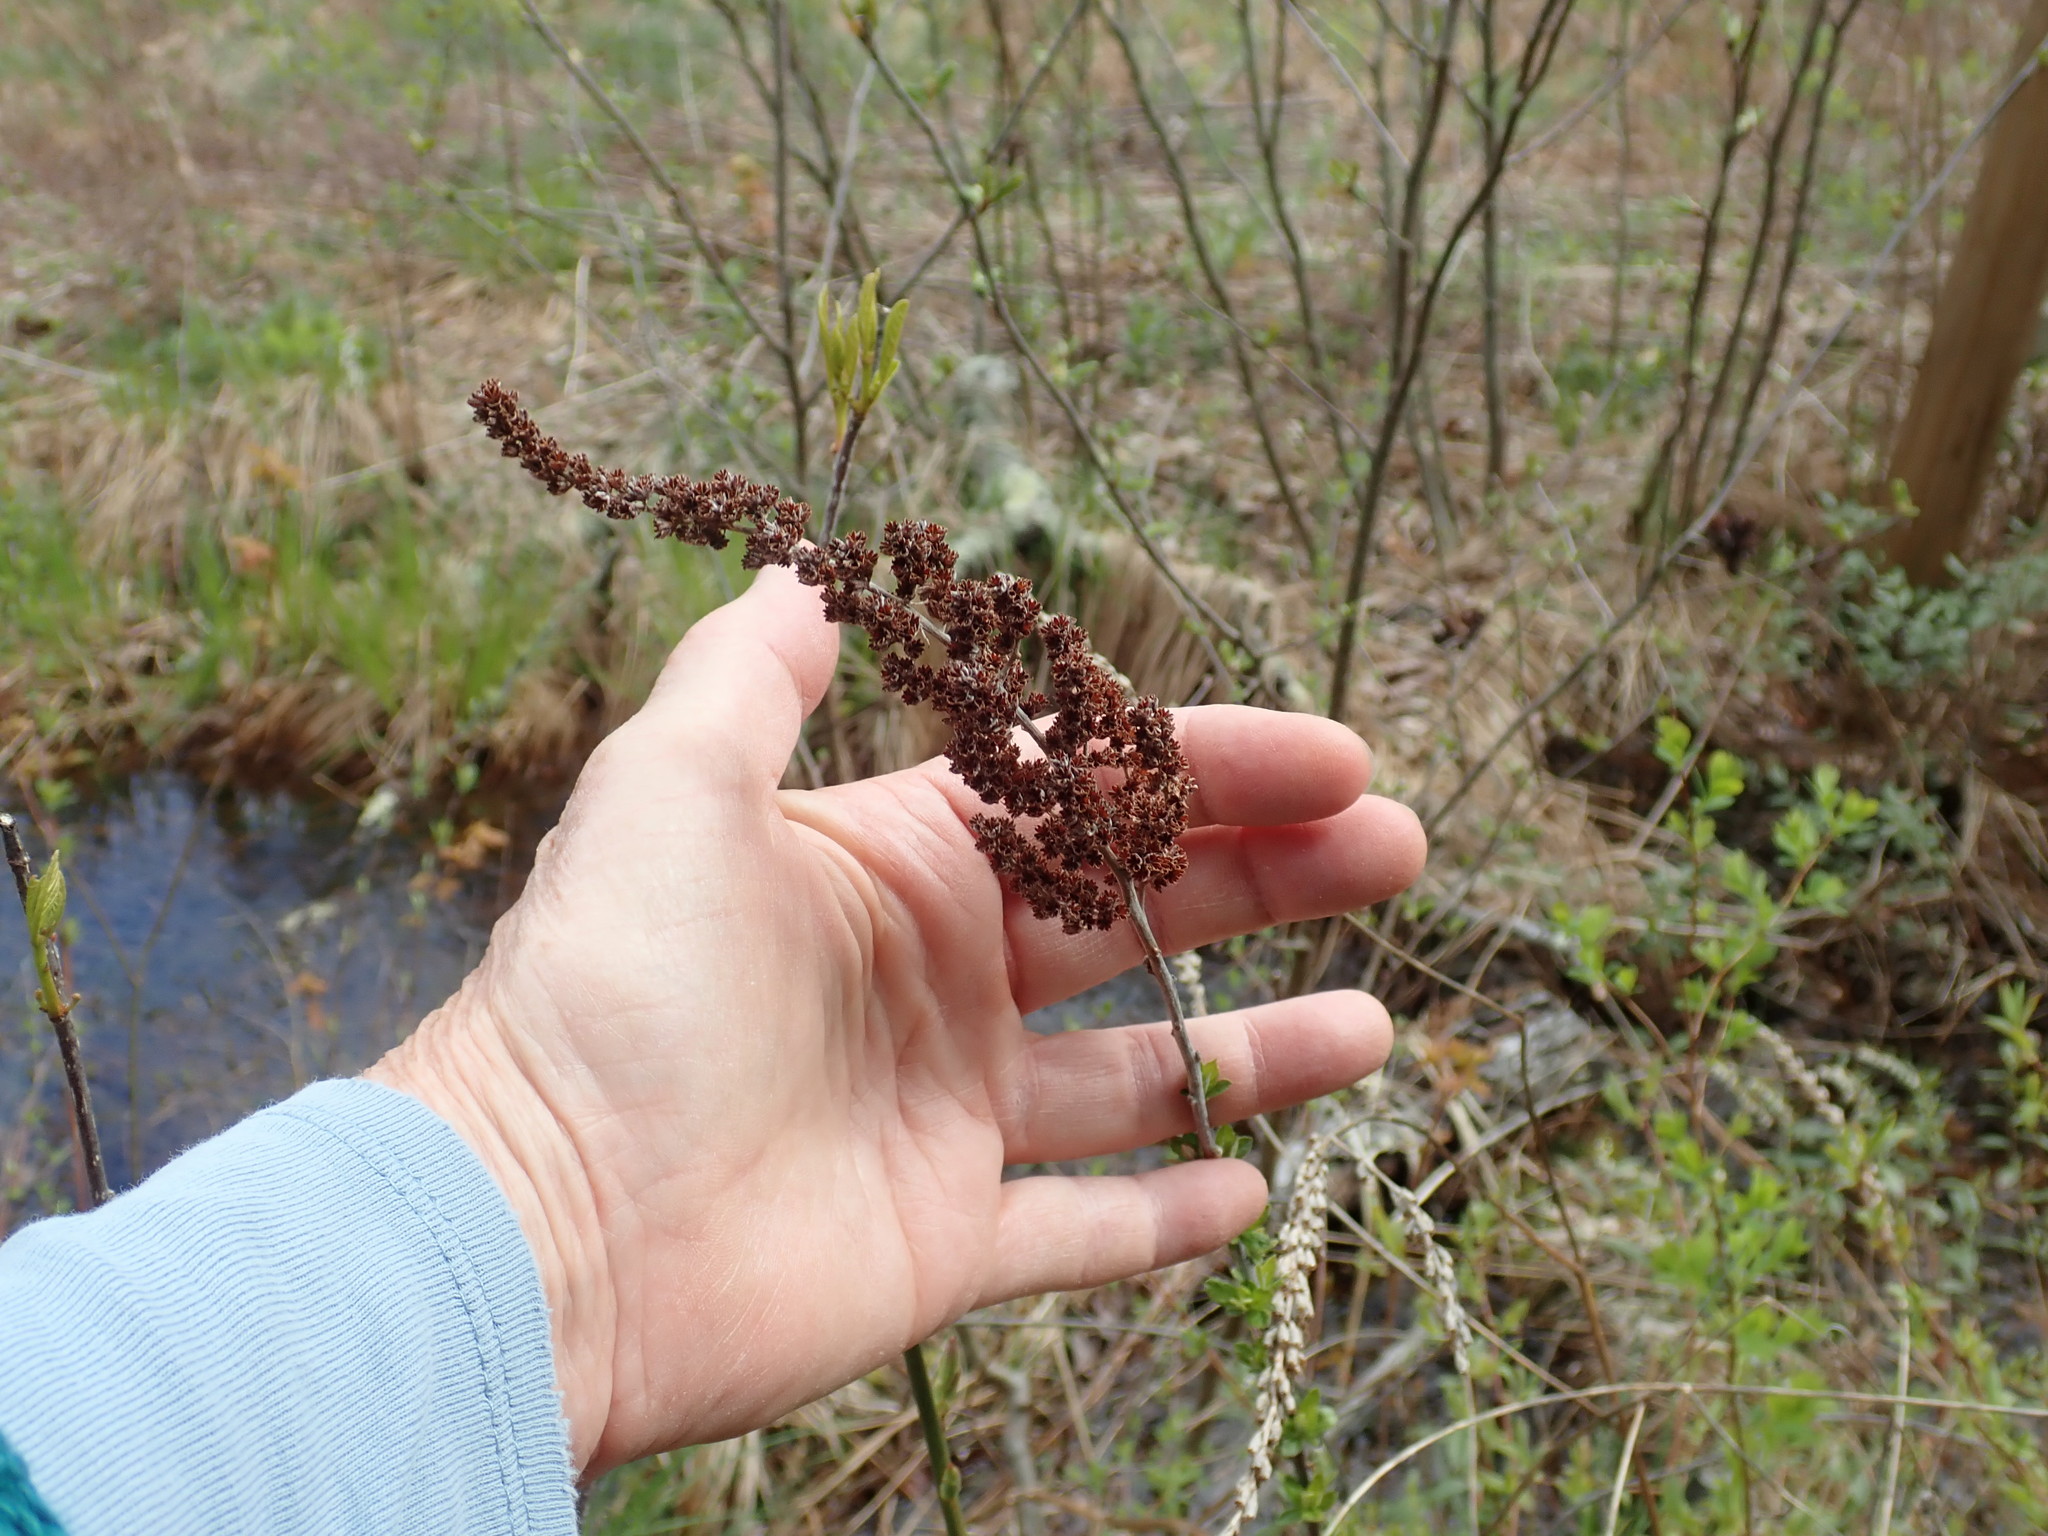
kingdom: Plantae
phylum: Tracheophyta
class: Magnoliopsida
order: Rosales
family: Rosaceae
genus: Spiraea
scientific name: Spiraea tomentosa
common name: Hardhack
